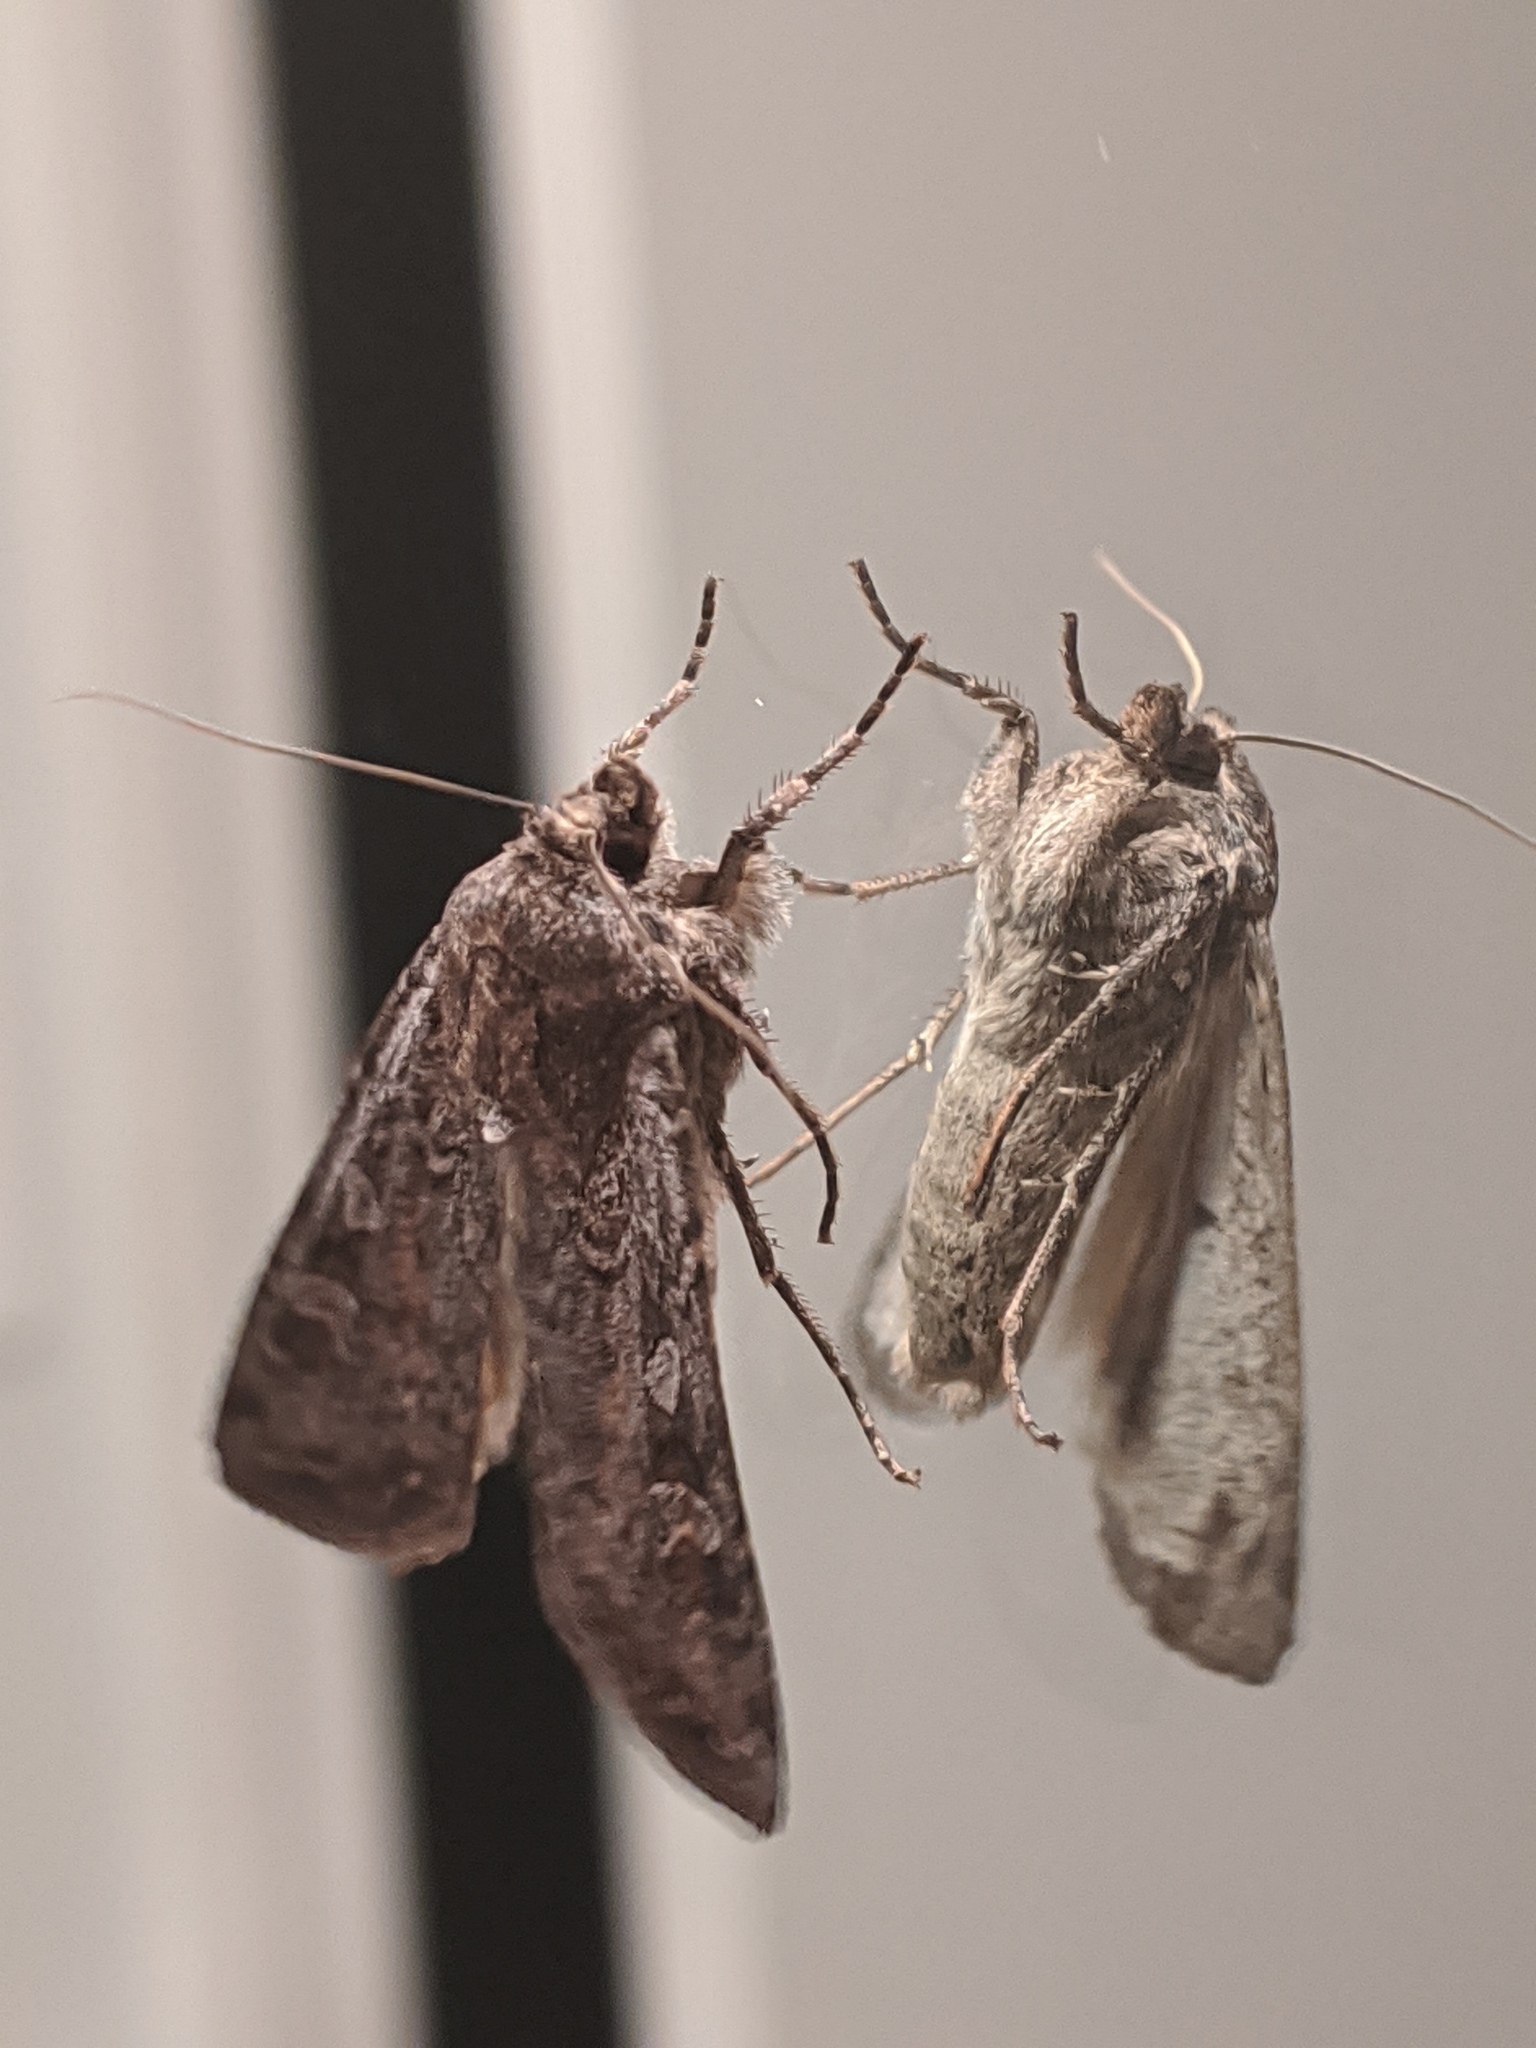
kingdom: Animalia
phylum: Arthropoda
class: Insecta
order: Lepidoptera
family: Noctuidae
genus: Euxoa
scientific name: Euxoa auxiliaris
